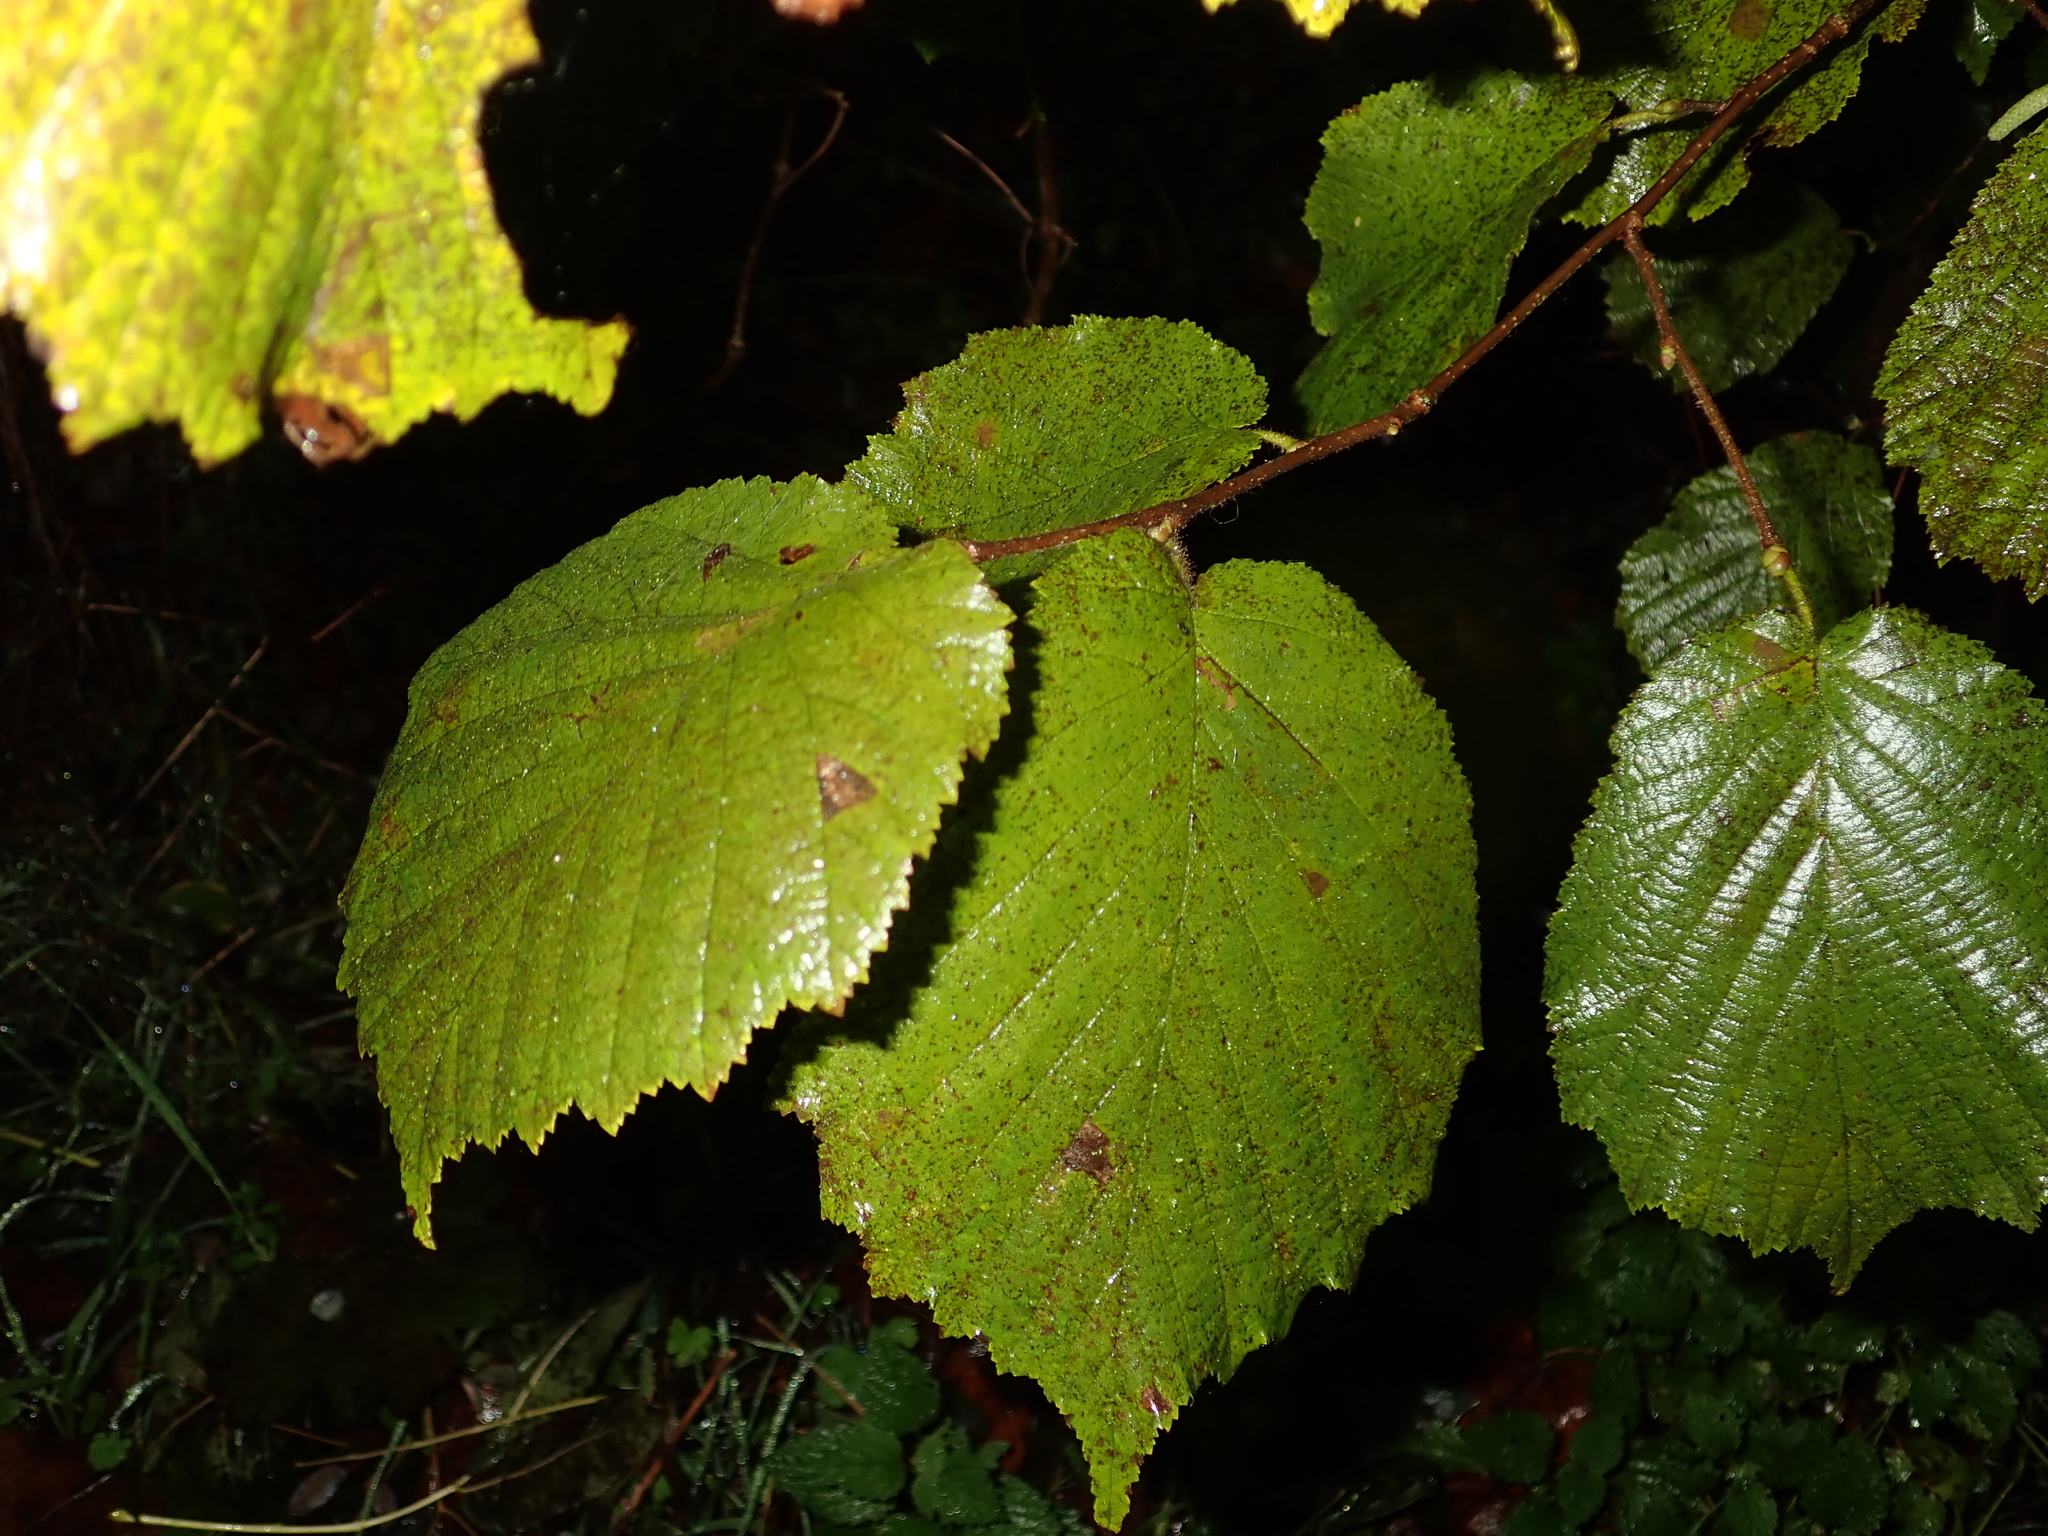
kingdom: Plantae
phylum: Tracheophyta
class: Magnoliopsida
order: Fagales
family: Betulaceae
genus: Corylus
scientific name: Corylus avellana
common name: European hazel
